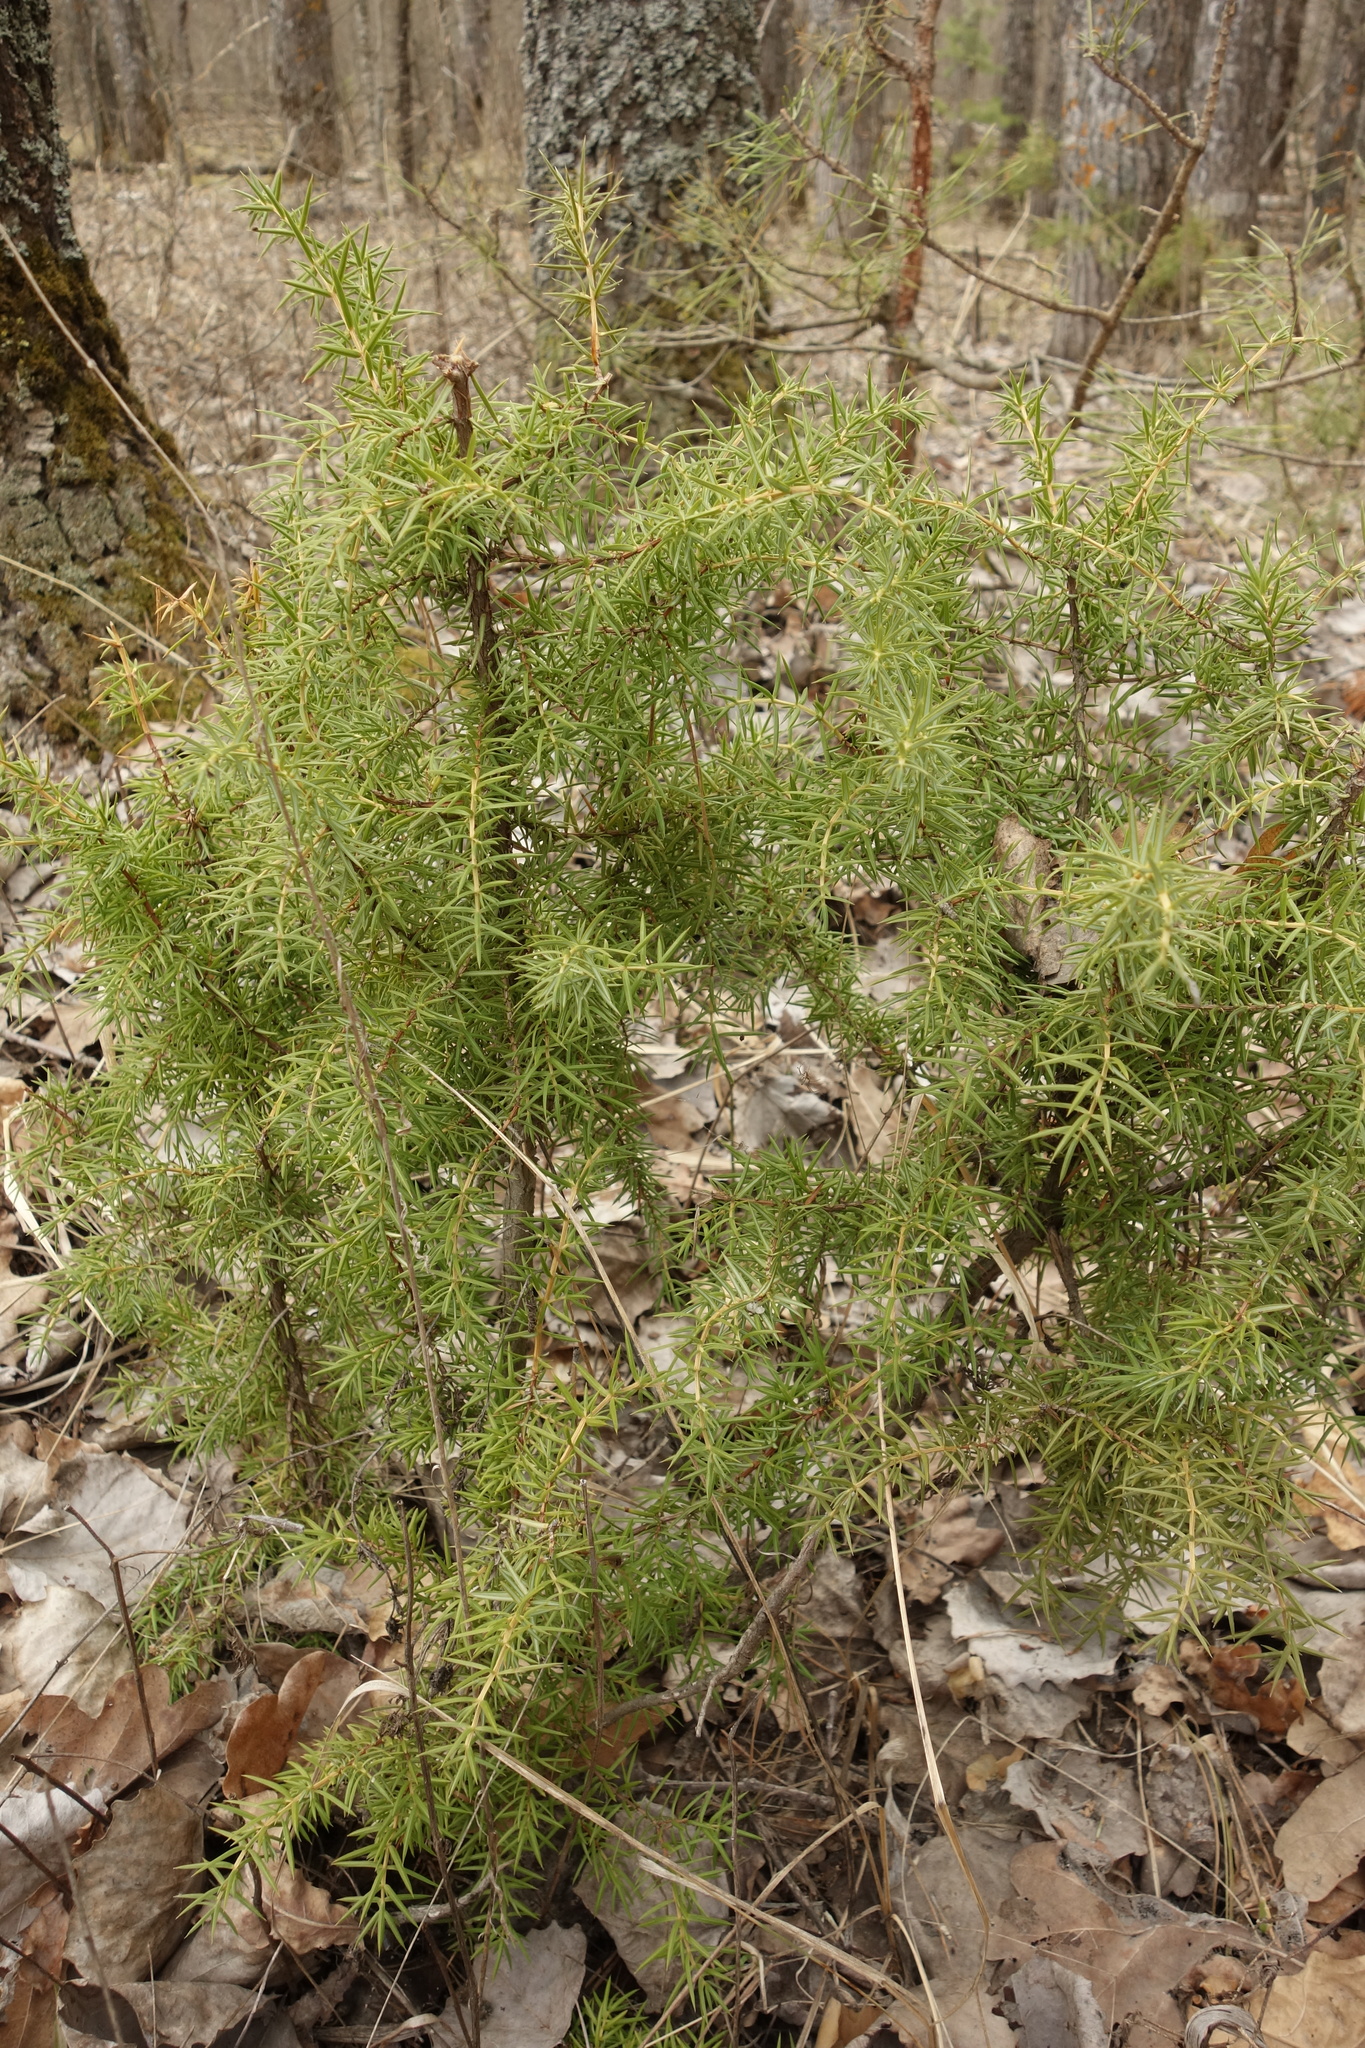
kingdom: Plantae
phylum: Tracheophyta
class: Pinopsida
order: Pinales
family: Cupressaceae
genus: Juniperus
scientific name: Juniperus communis
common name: Common juniper
